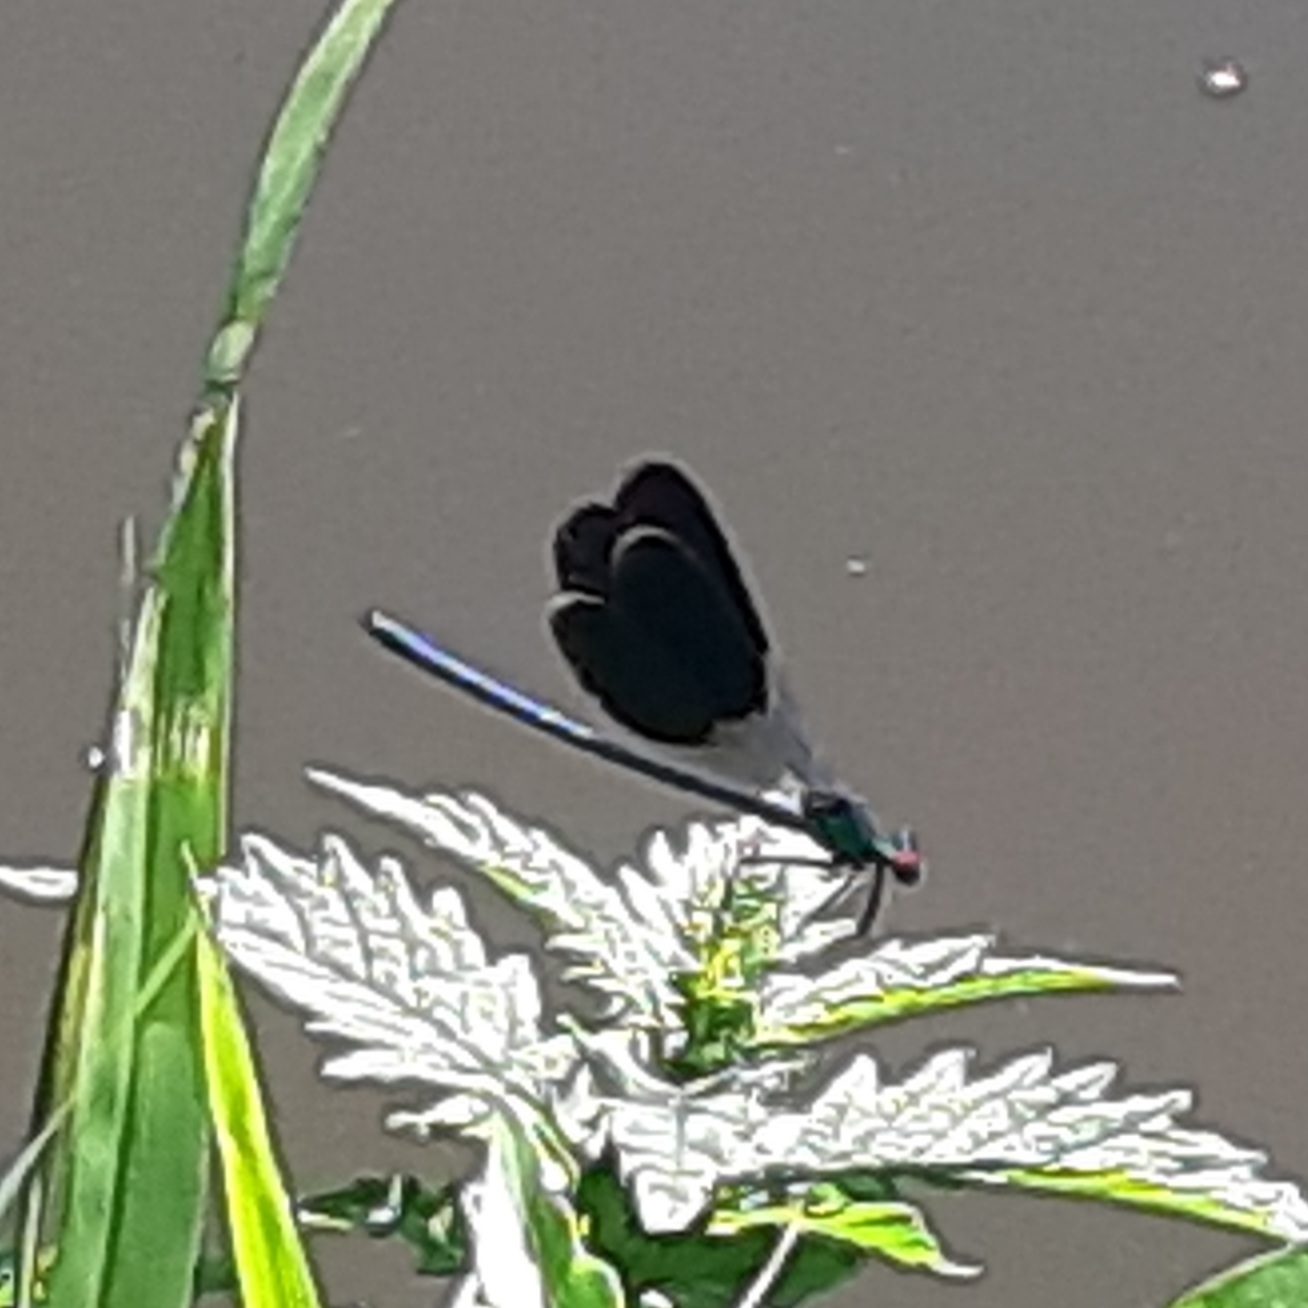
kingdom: Animalia
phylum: Arthropoda
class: Insecta
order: Odonata
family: Calopterygidae
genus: Calopteryx
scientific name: Calopteryx splendens
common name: Banded demoiselle
